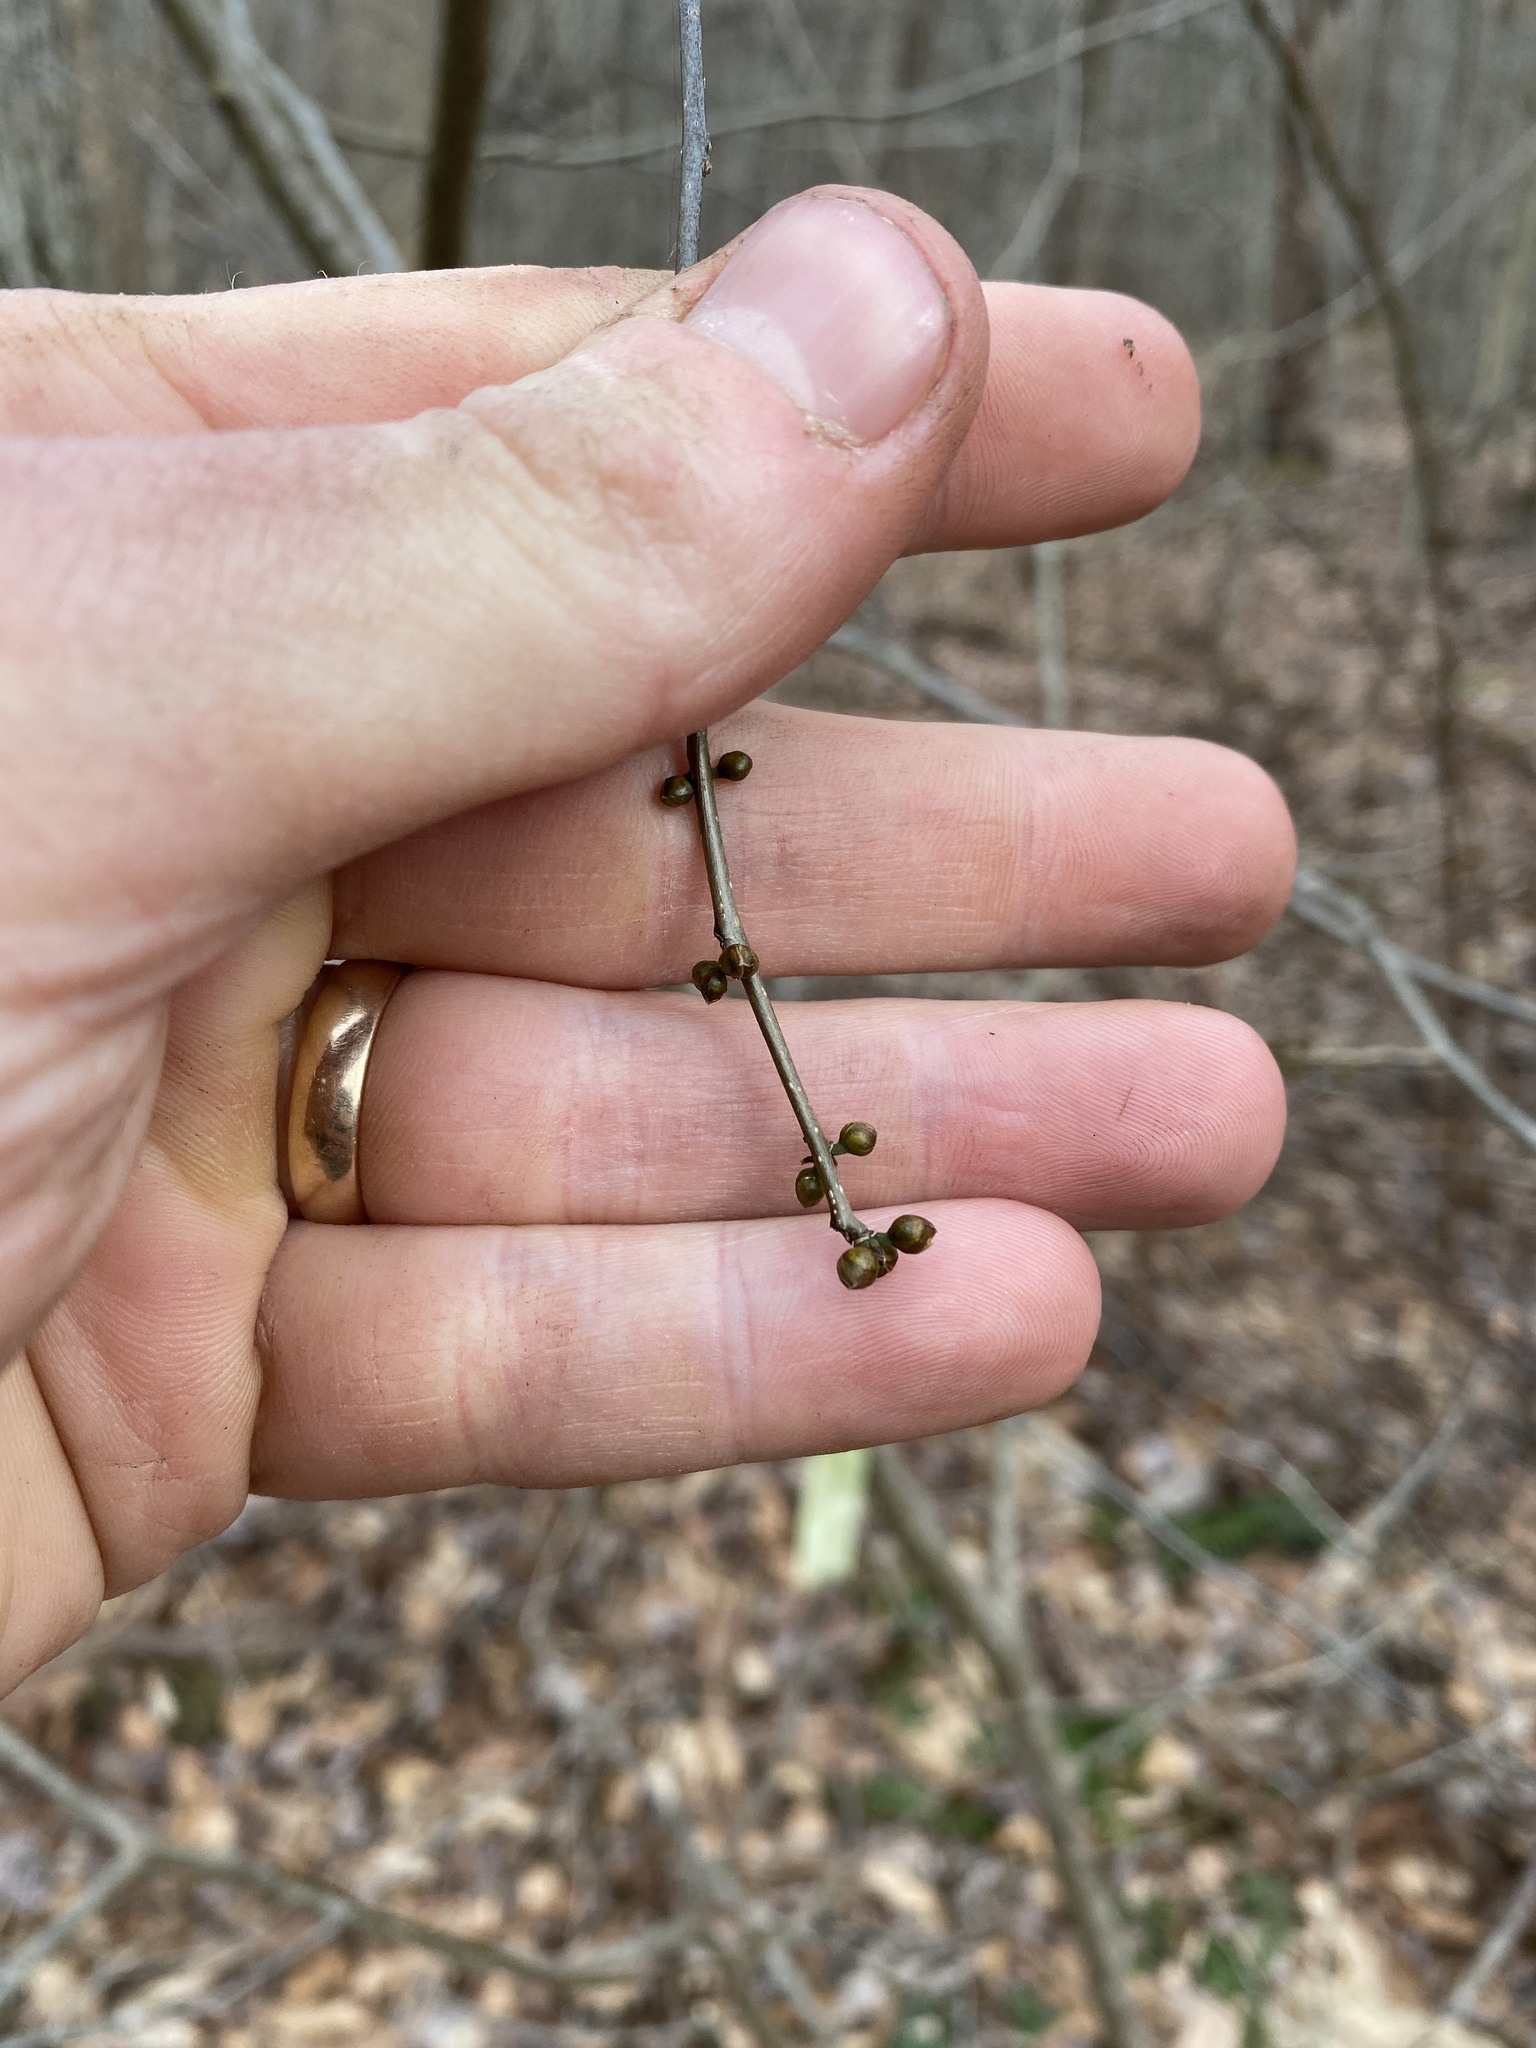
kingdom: Plantae
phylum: Tracheophyta
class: Magnoliopsida
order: Laurales
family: Lauraceae
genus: Lindera
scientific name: Lindera benzoin
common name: Spicebush
